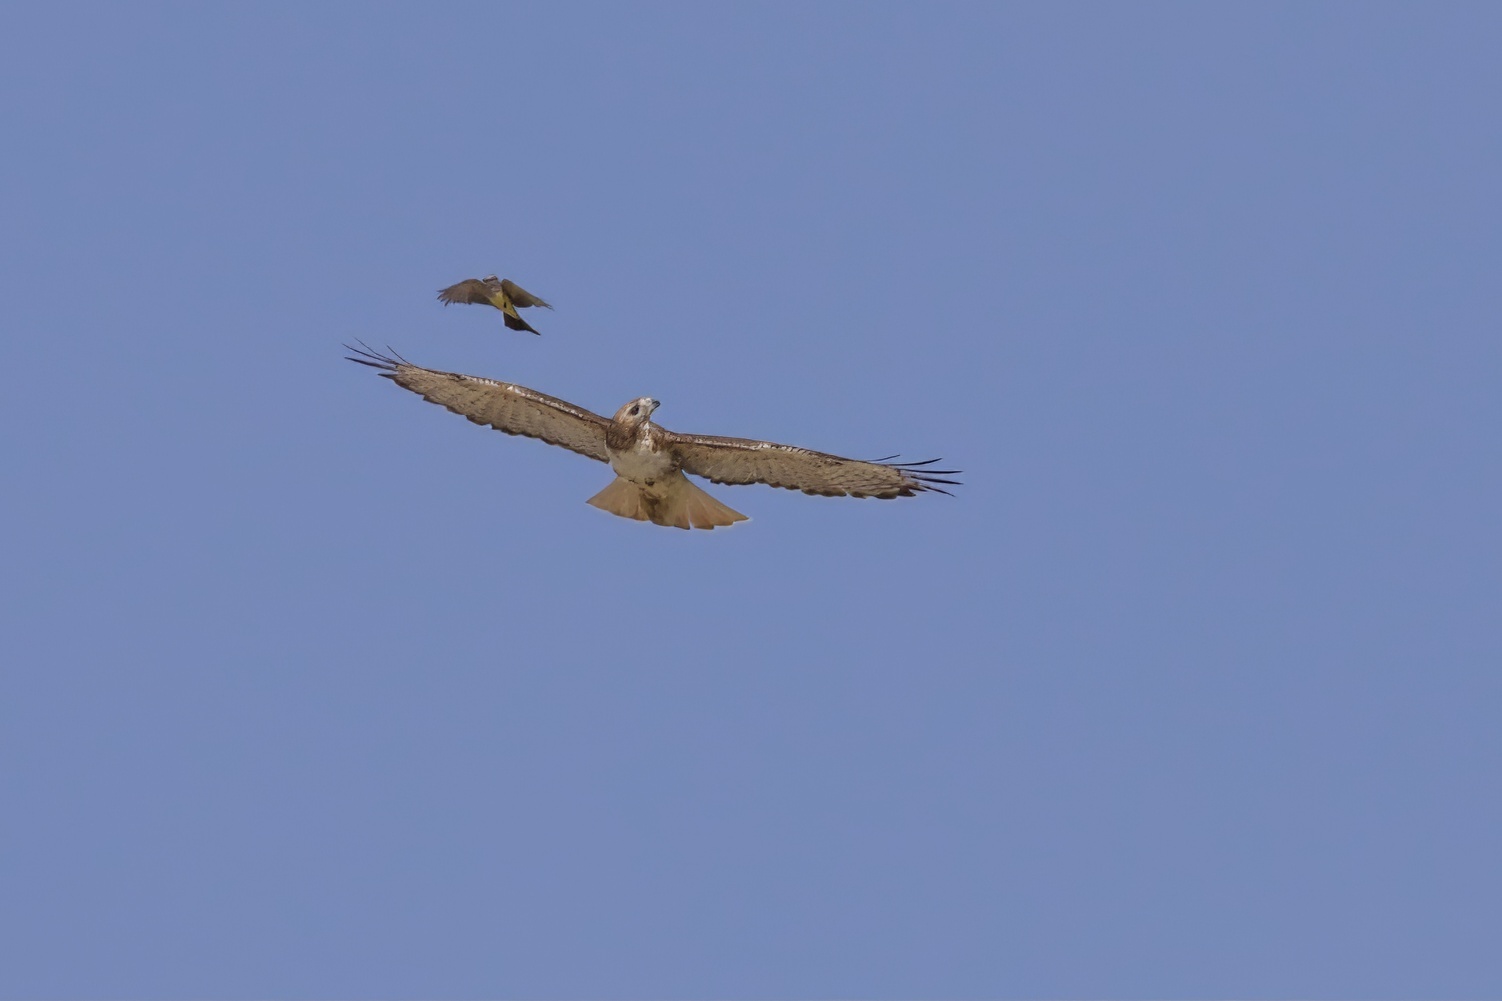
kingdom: Animalia
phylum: Chordata
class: Aves
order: Accipitriformes
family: Accipitridae
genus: Buteo
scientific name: Buteo jamaicensis
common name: Red-tailed hawk
